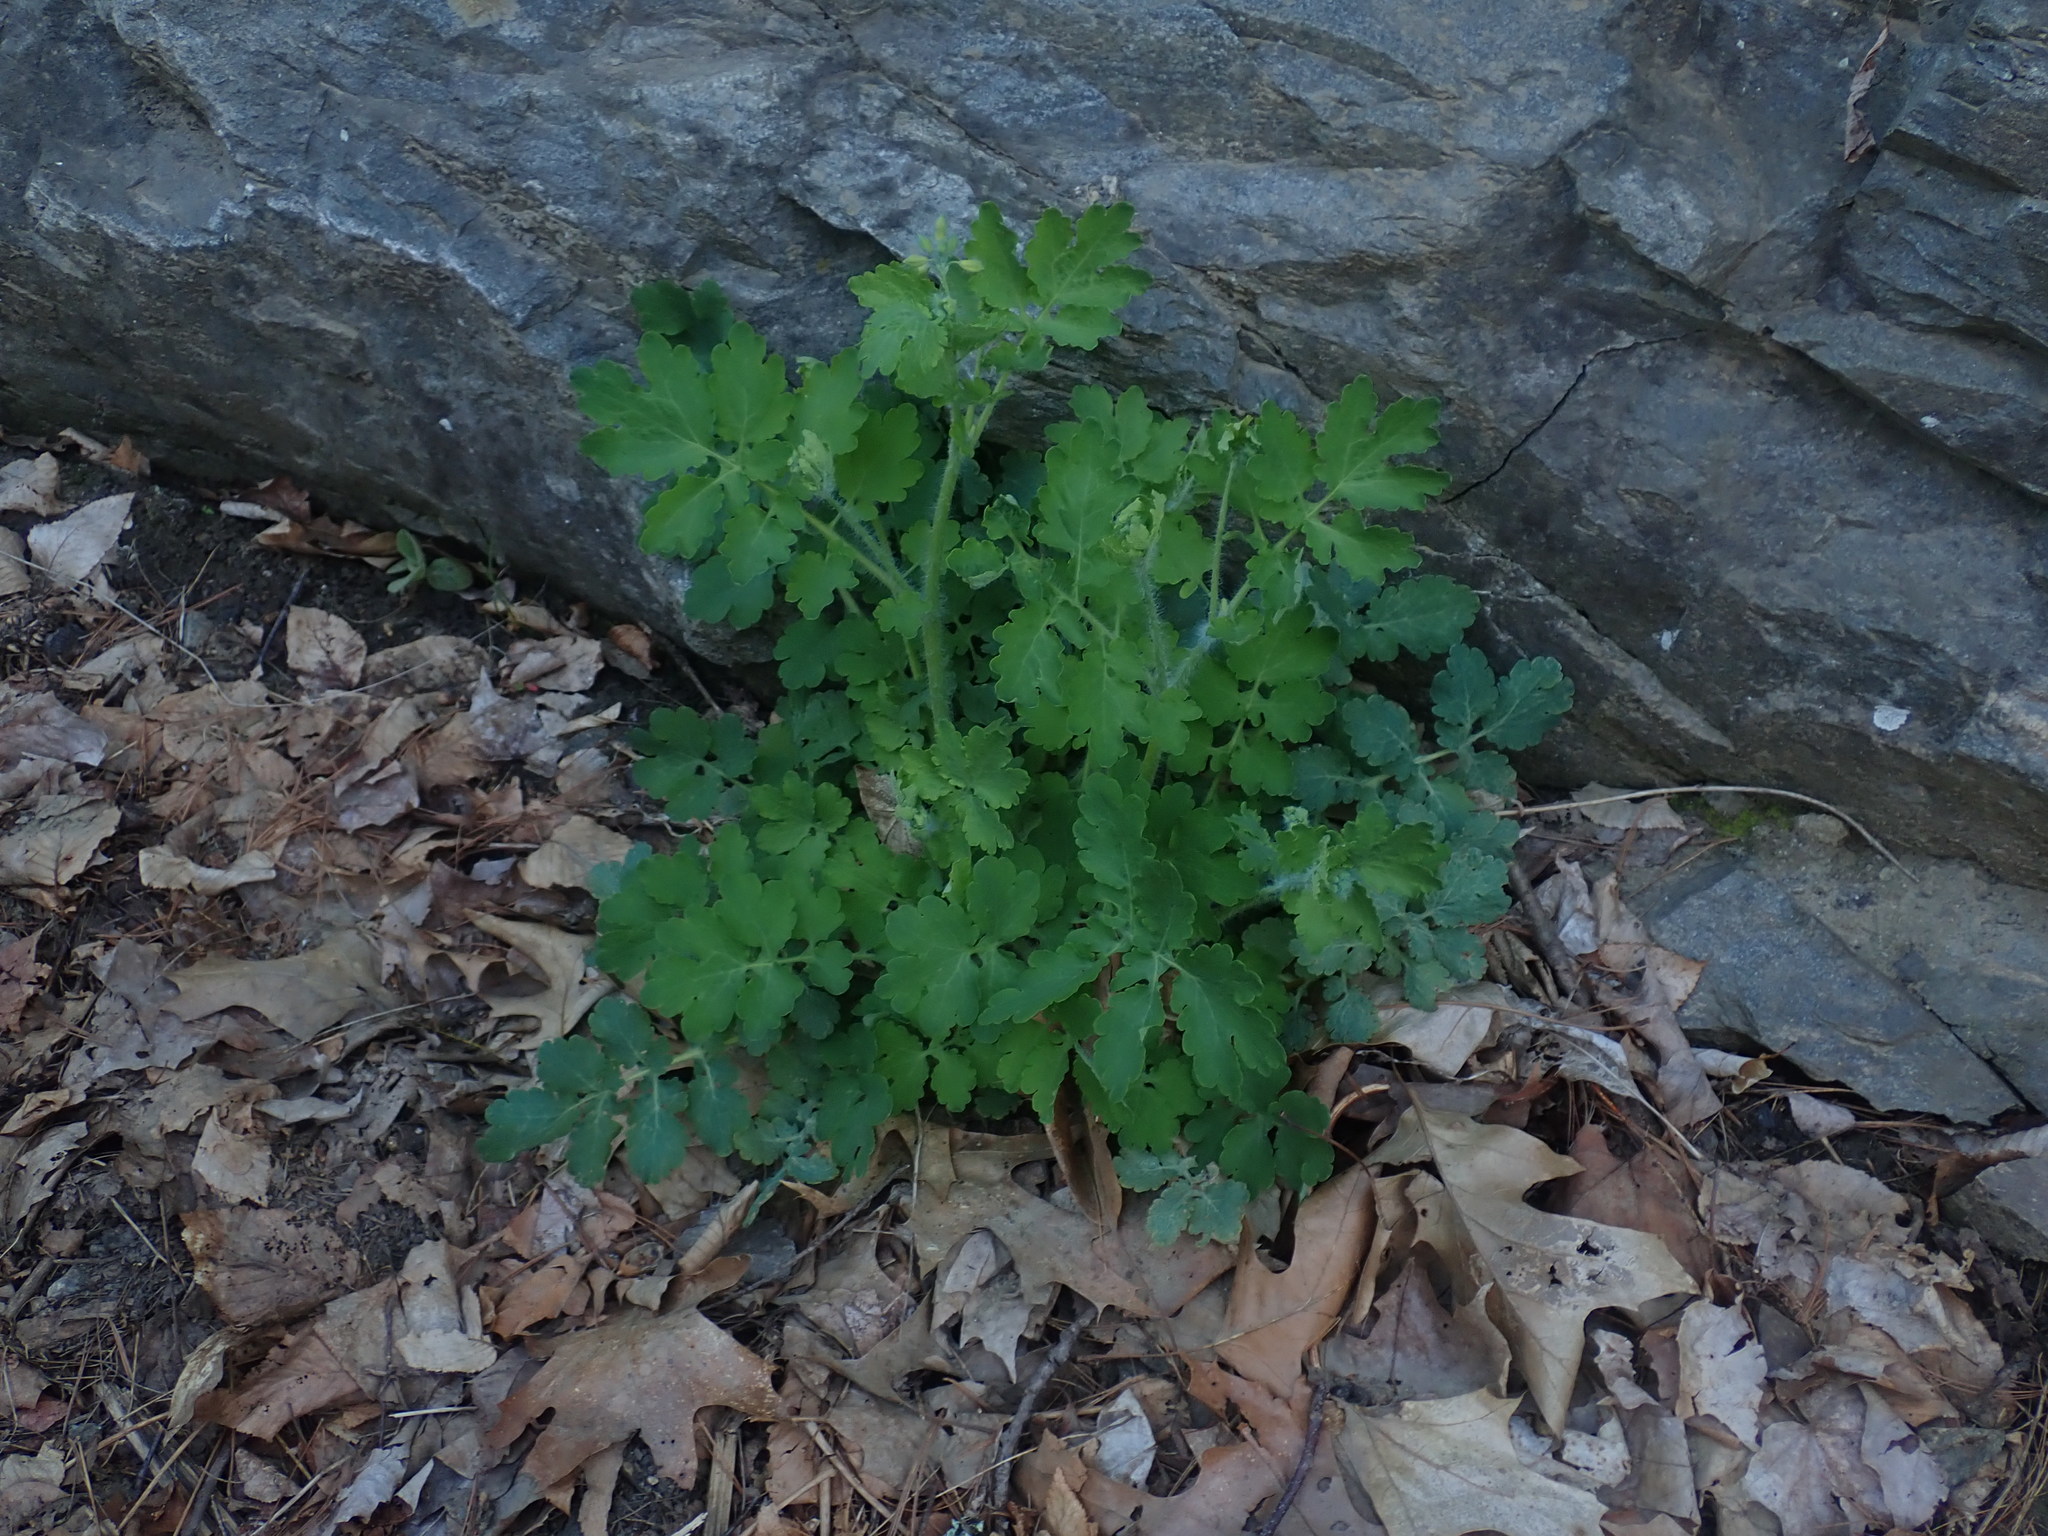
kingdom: Plantae
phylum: Tracheophyta
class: Magnoliopsida
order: Ranunculales
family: Papaveraceae
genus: Chelidonium
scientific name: Chelidonium majus
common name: Greater celandine
